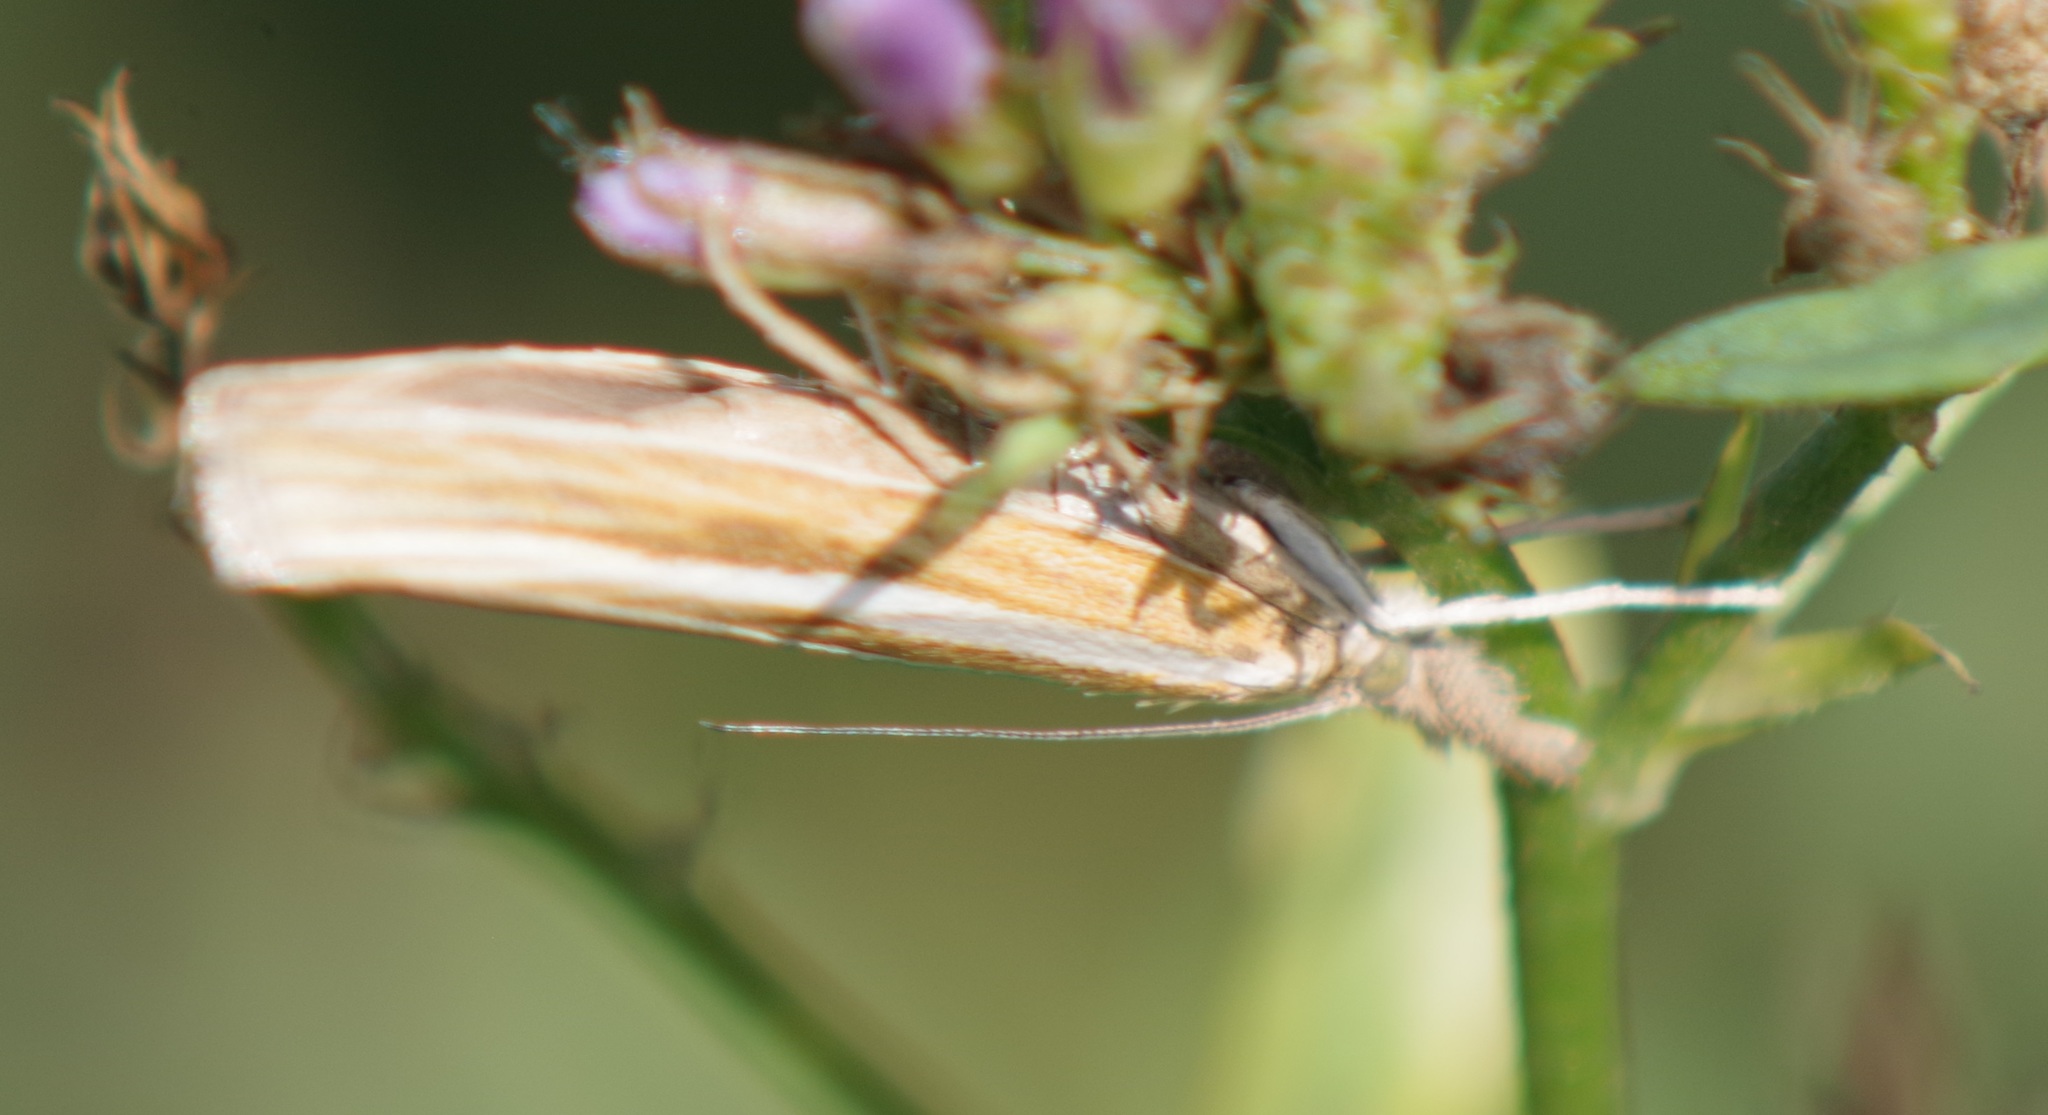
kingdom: Animalia
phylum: Arthropoda
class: Insecta
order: Lepidoptera
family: Crambidae
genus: Agriphila
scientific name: Agriphila tristellus
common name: Common grass-veneer
